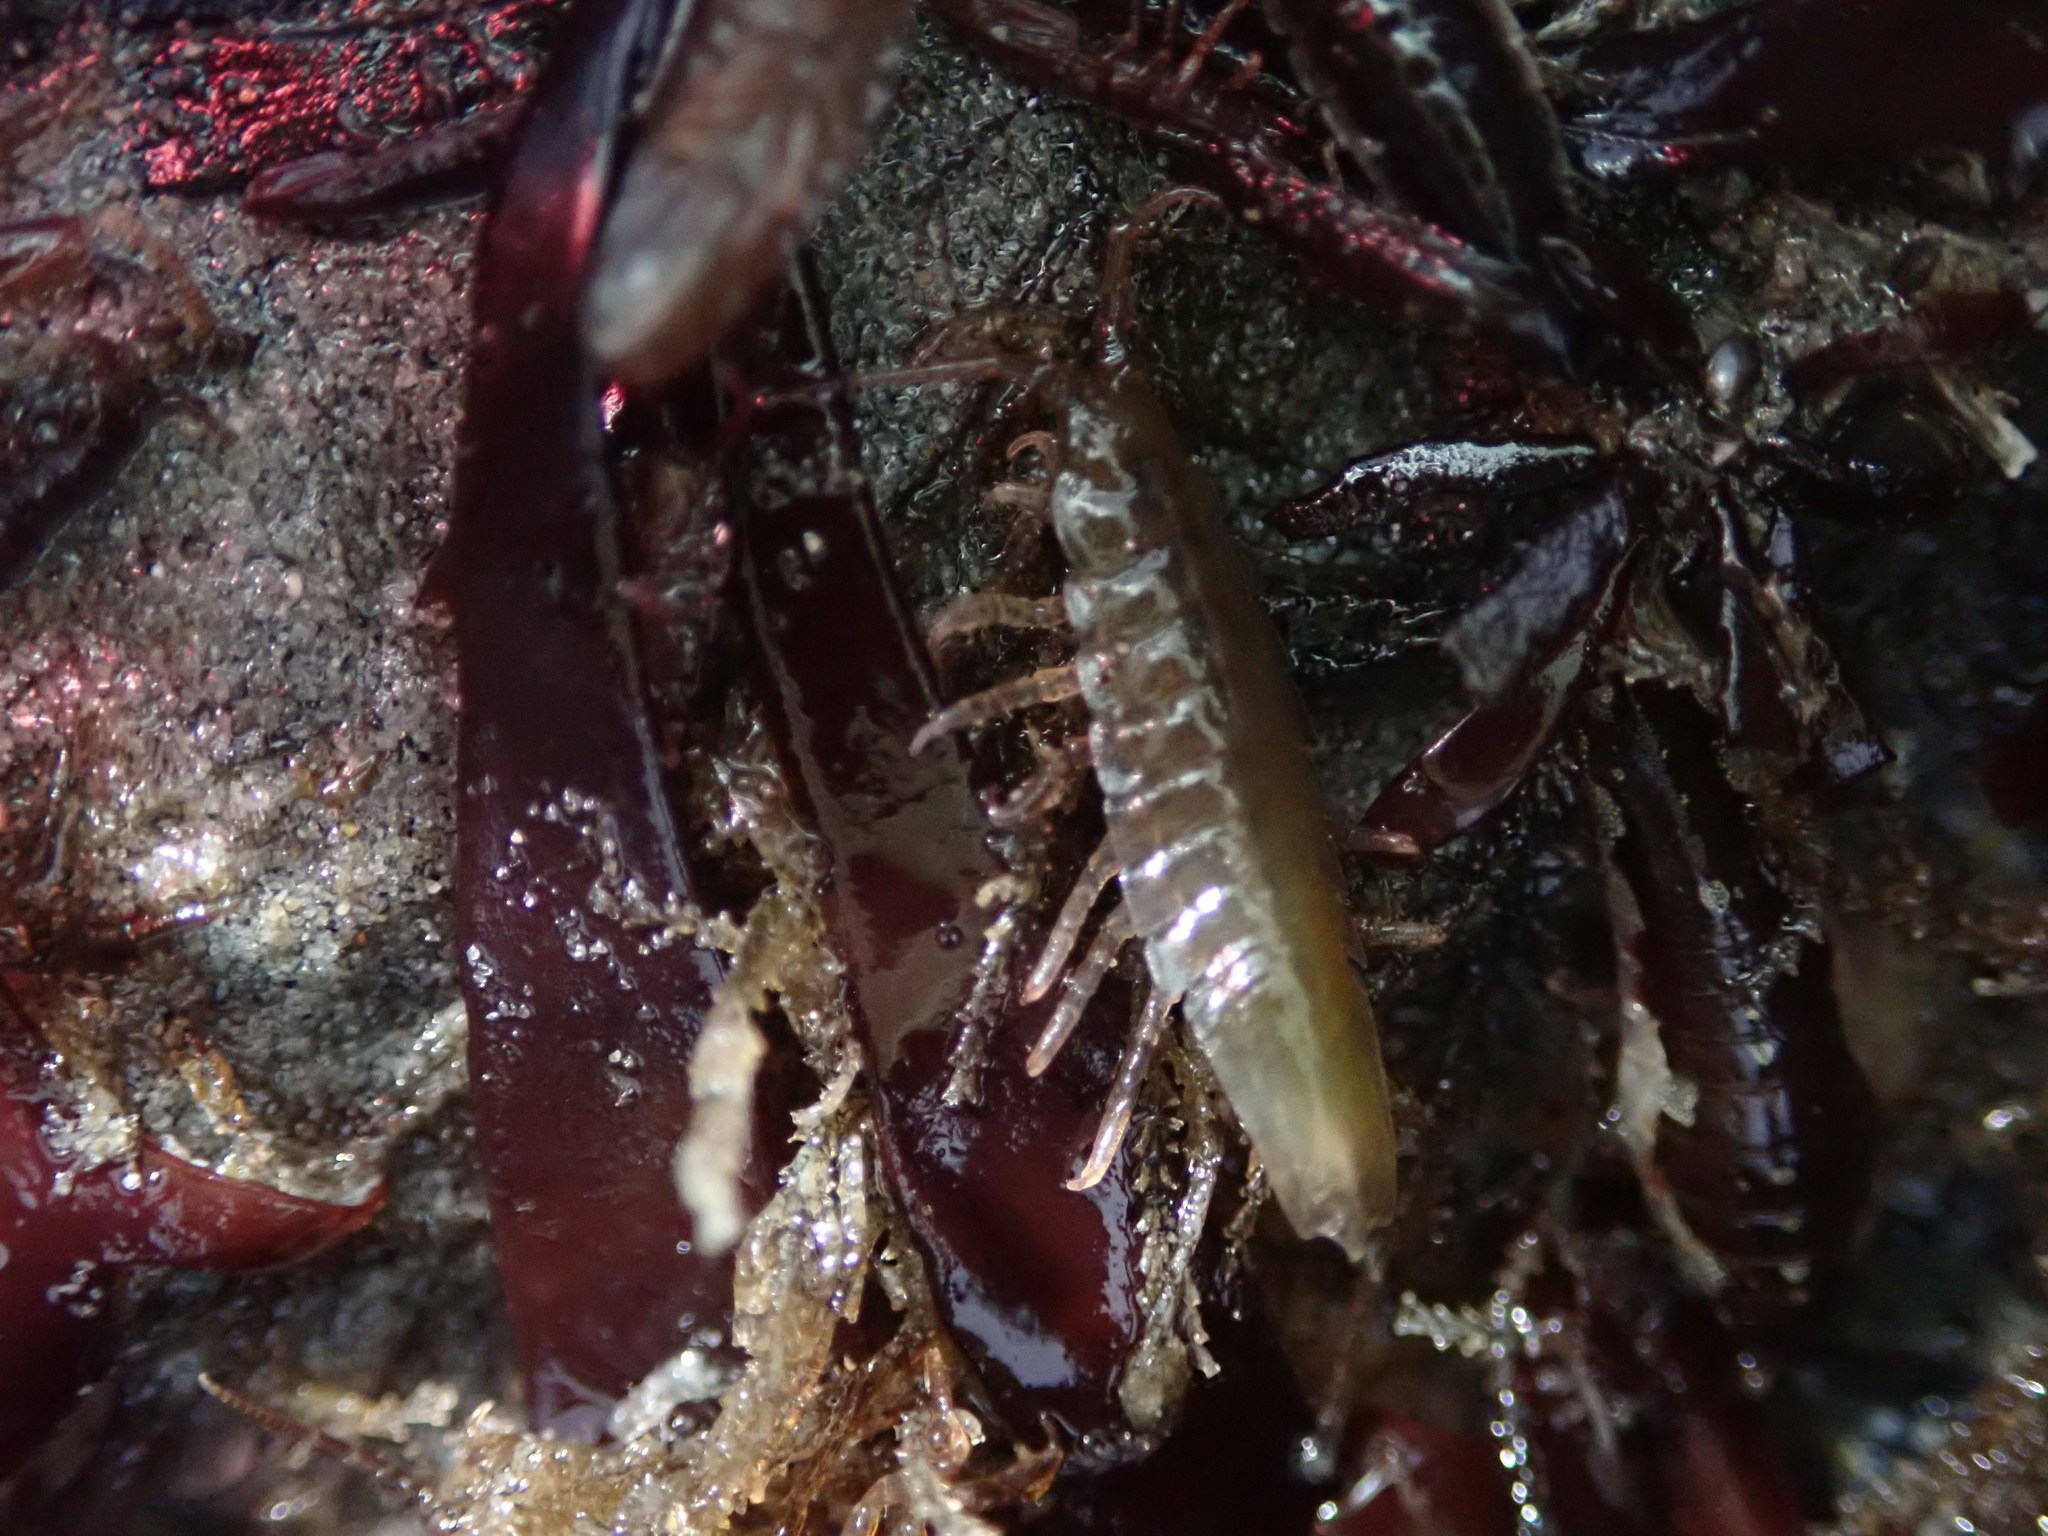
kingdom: Animalia
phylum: Arthropoda
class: Malacostraca
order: Isopoda
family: Idoteidae
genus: Idotea
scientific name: Idotea balthica
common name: Baltic isopod
